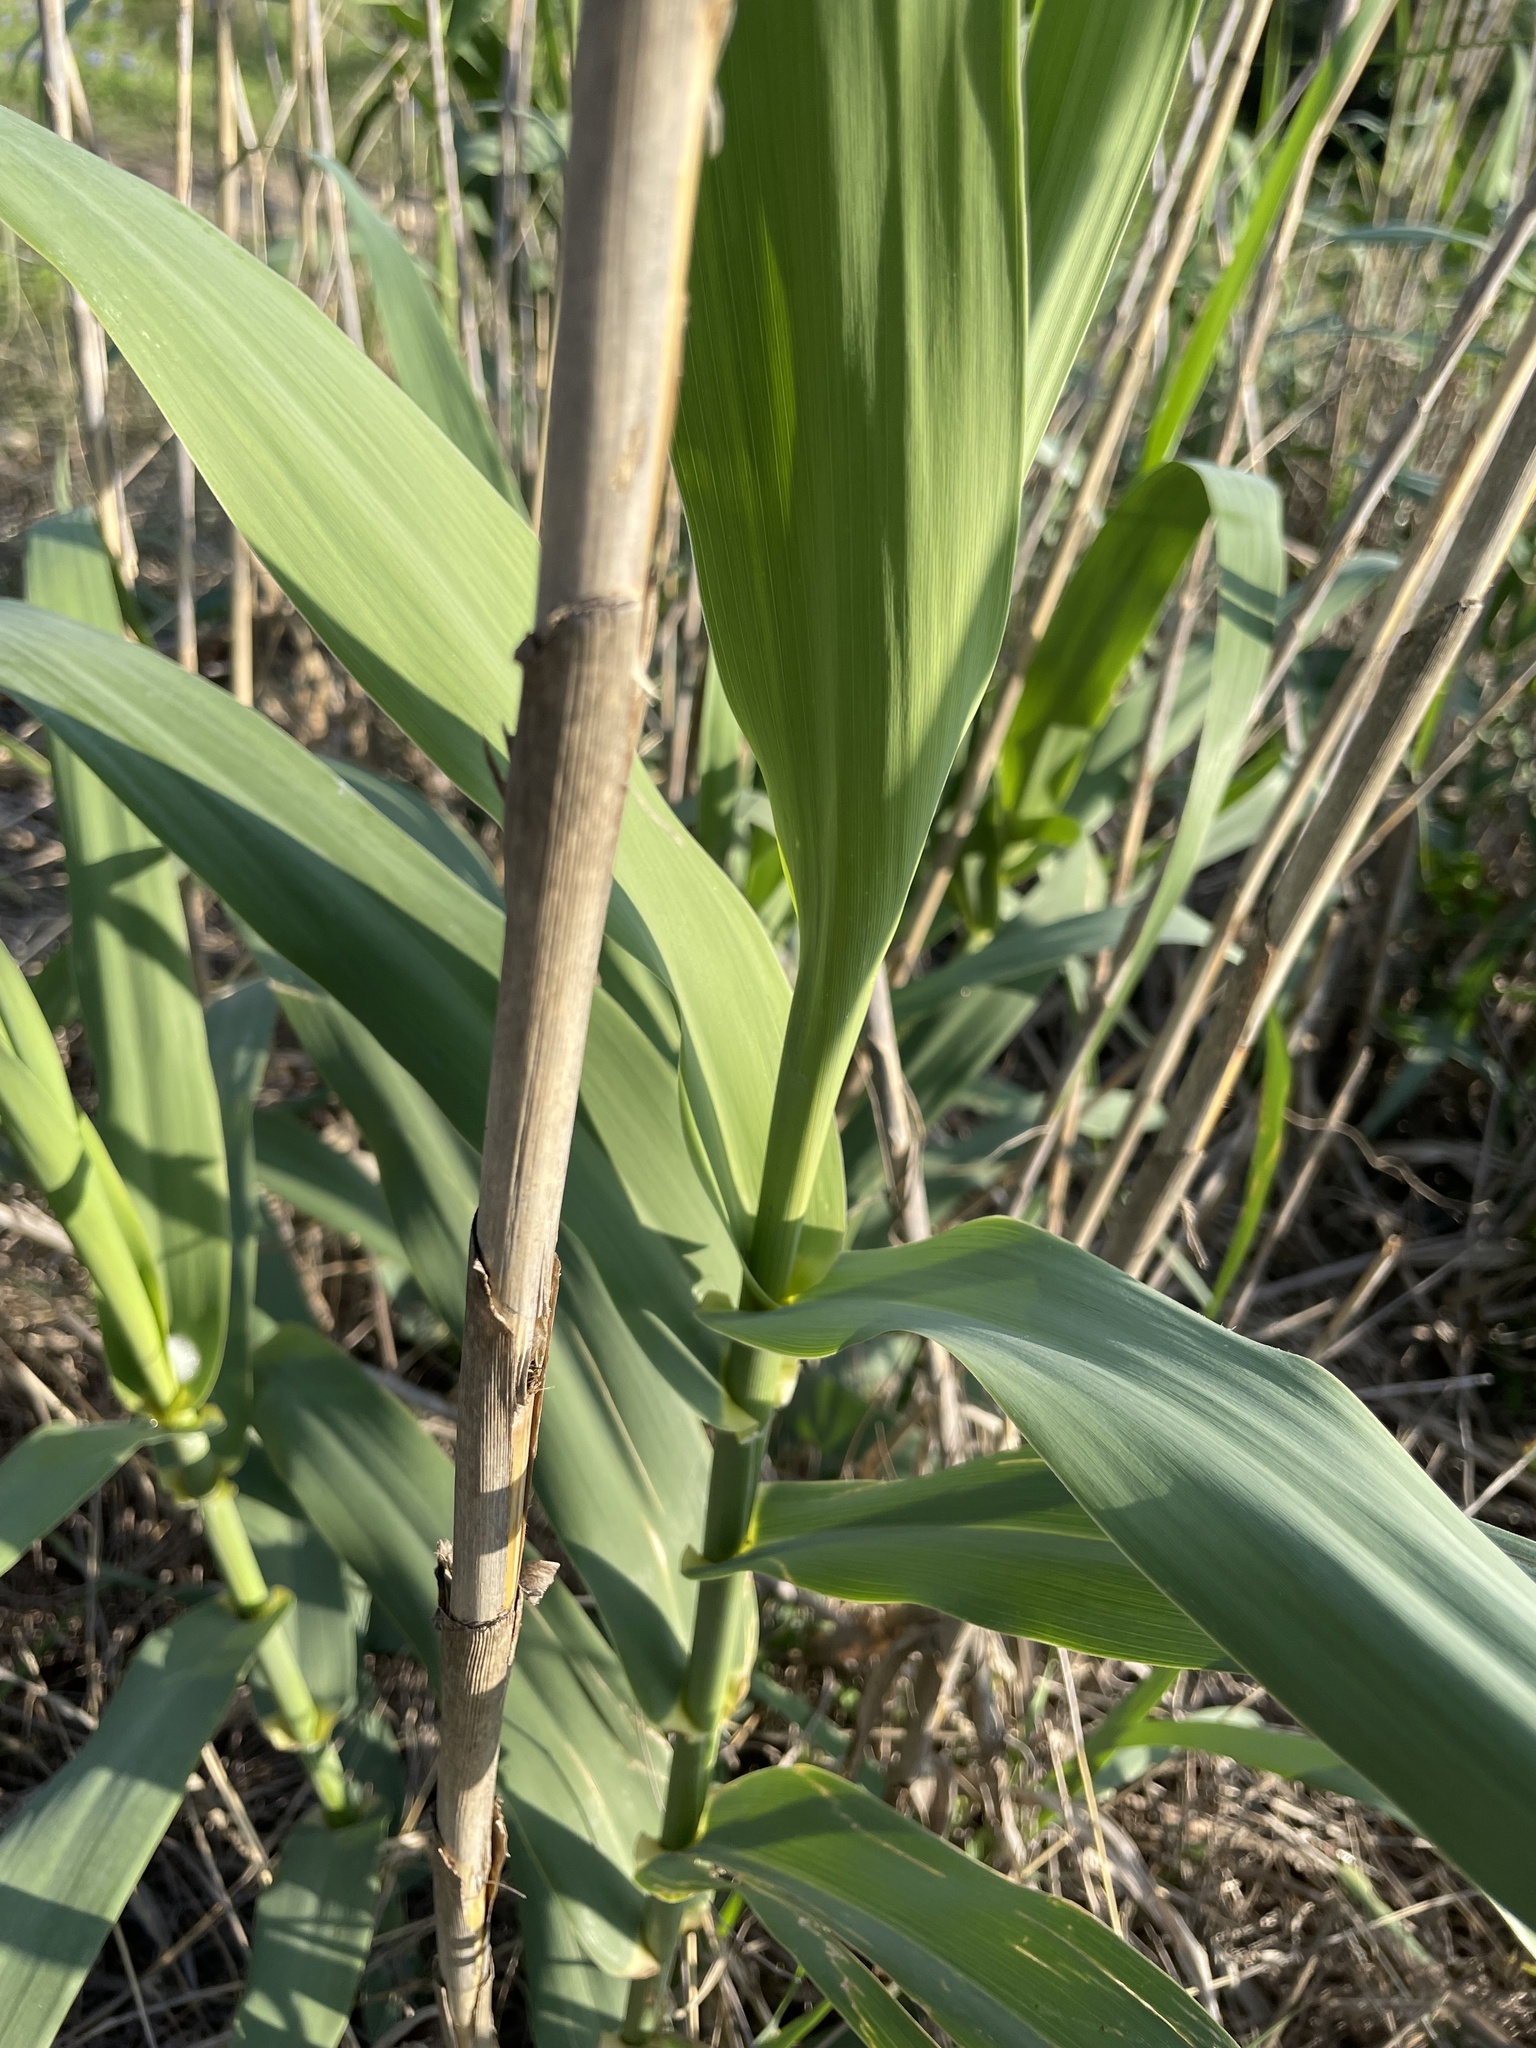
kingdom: Plantae
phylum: Tracheophyta
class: Liliopsida
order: Poales
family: Poaceae
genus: Arundo
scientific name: Arundo donax
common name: Giant reed
